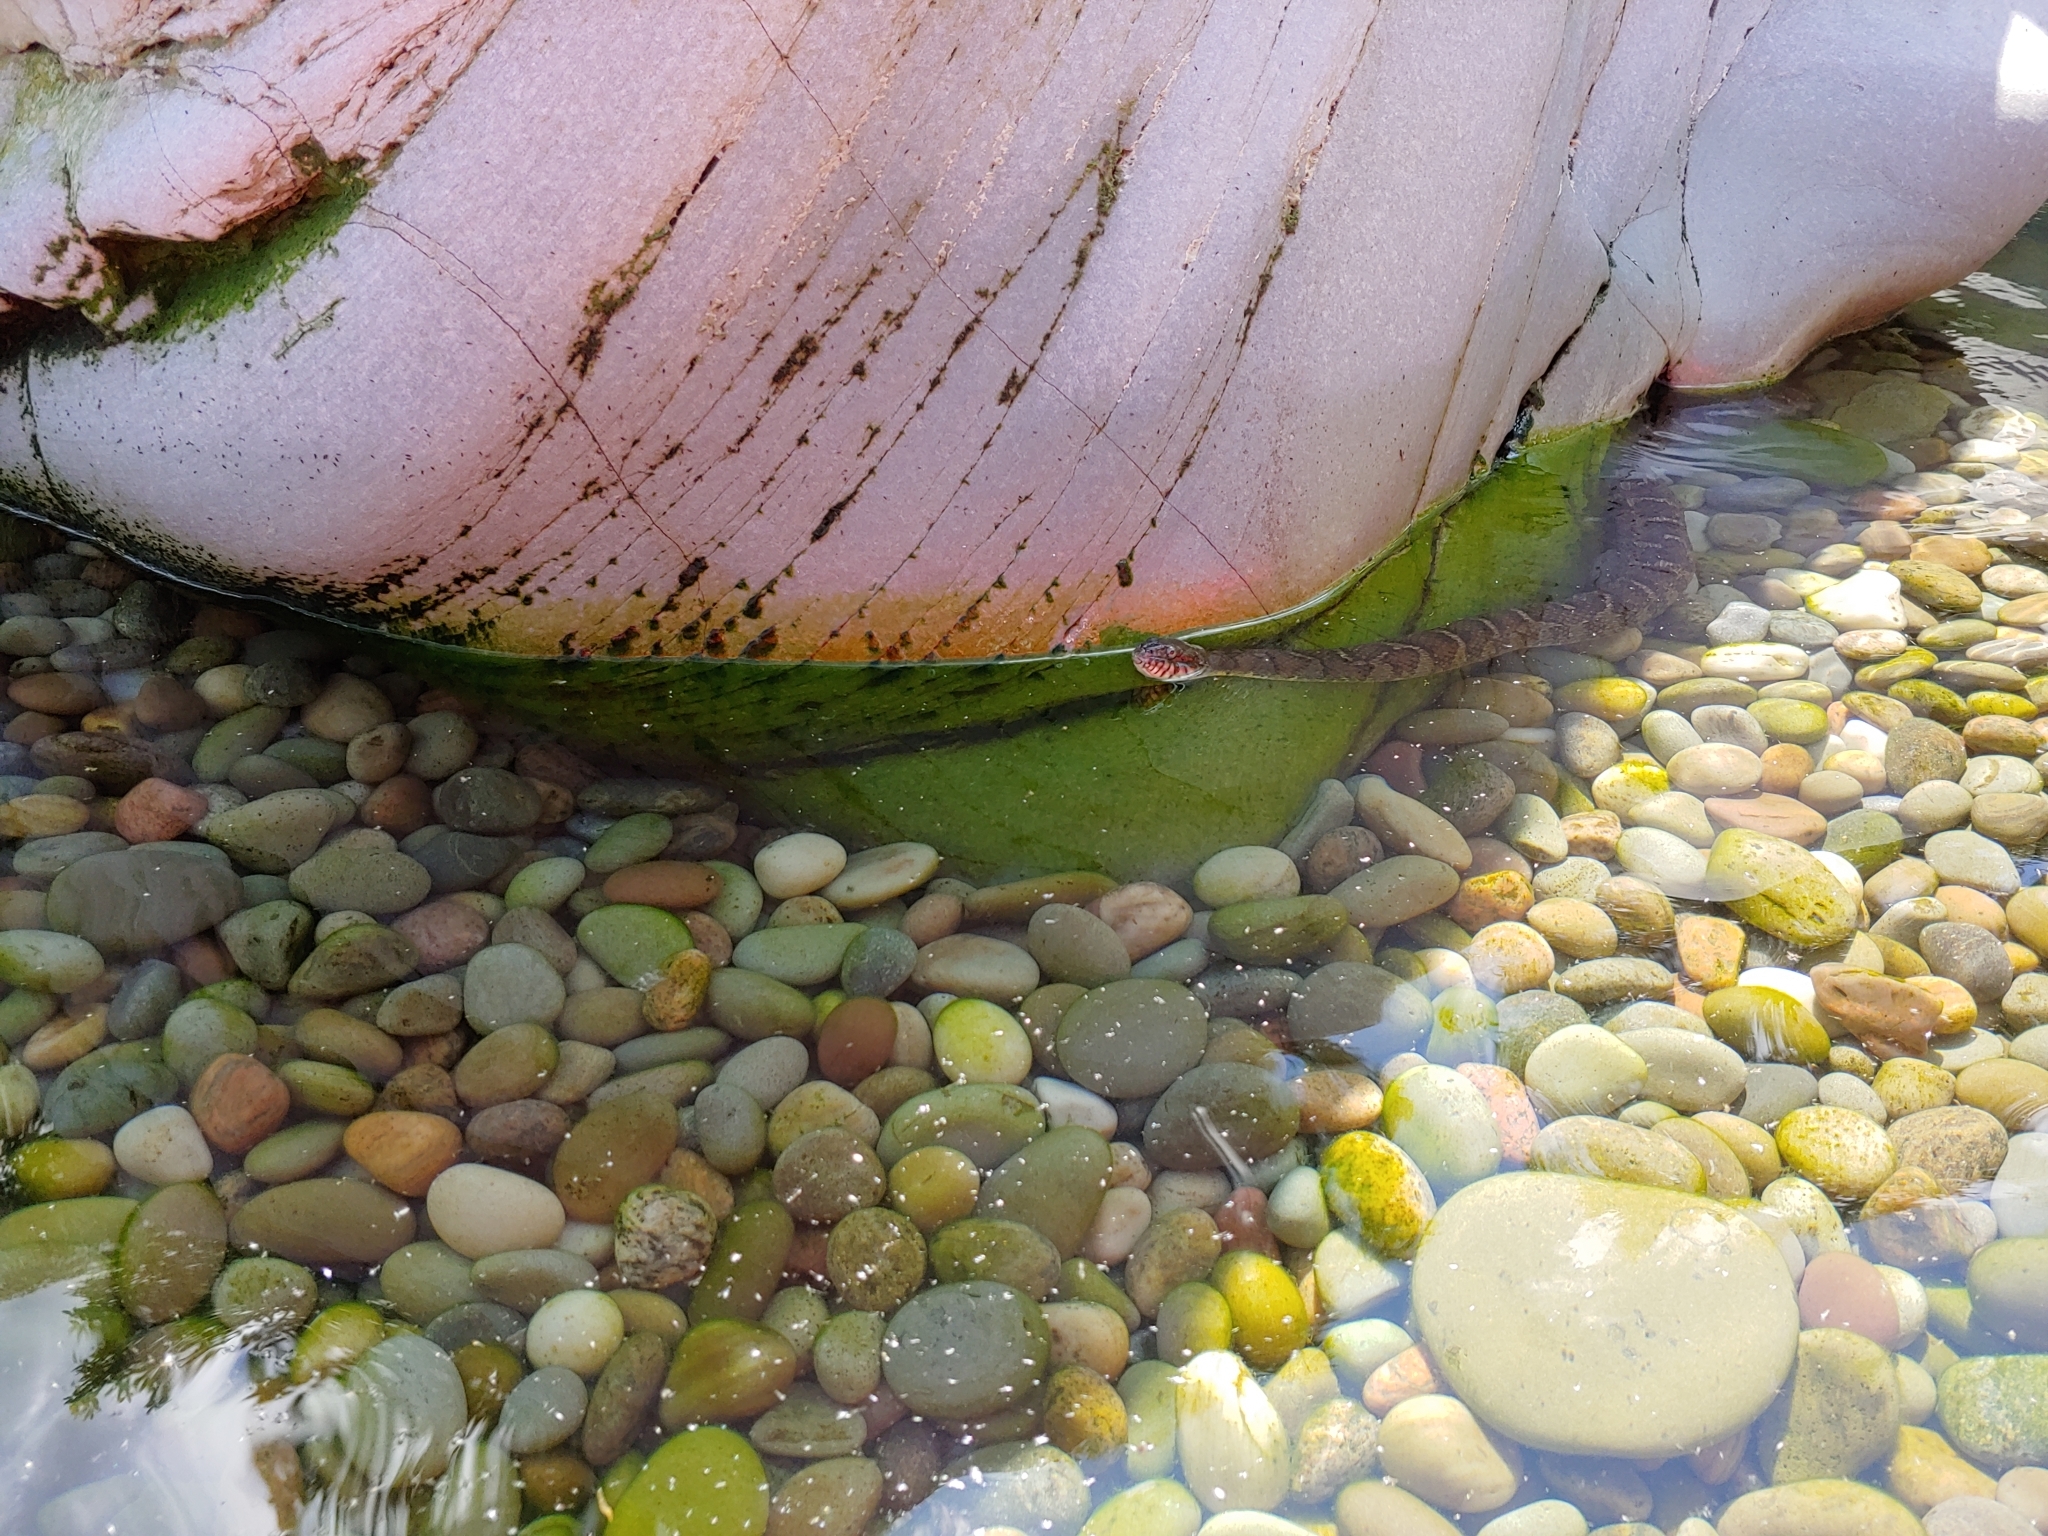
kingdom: Animalia
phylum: Chordata
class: Squamata
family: Colubridae
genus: Nerodia
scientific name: Nerodia sipedon
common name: Northern water snake
